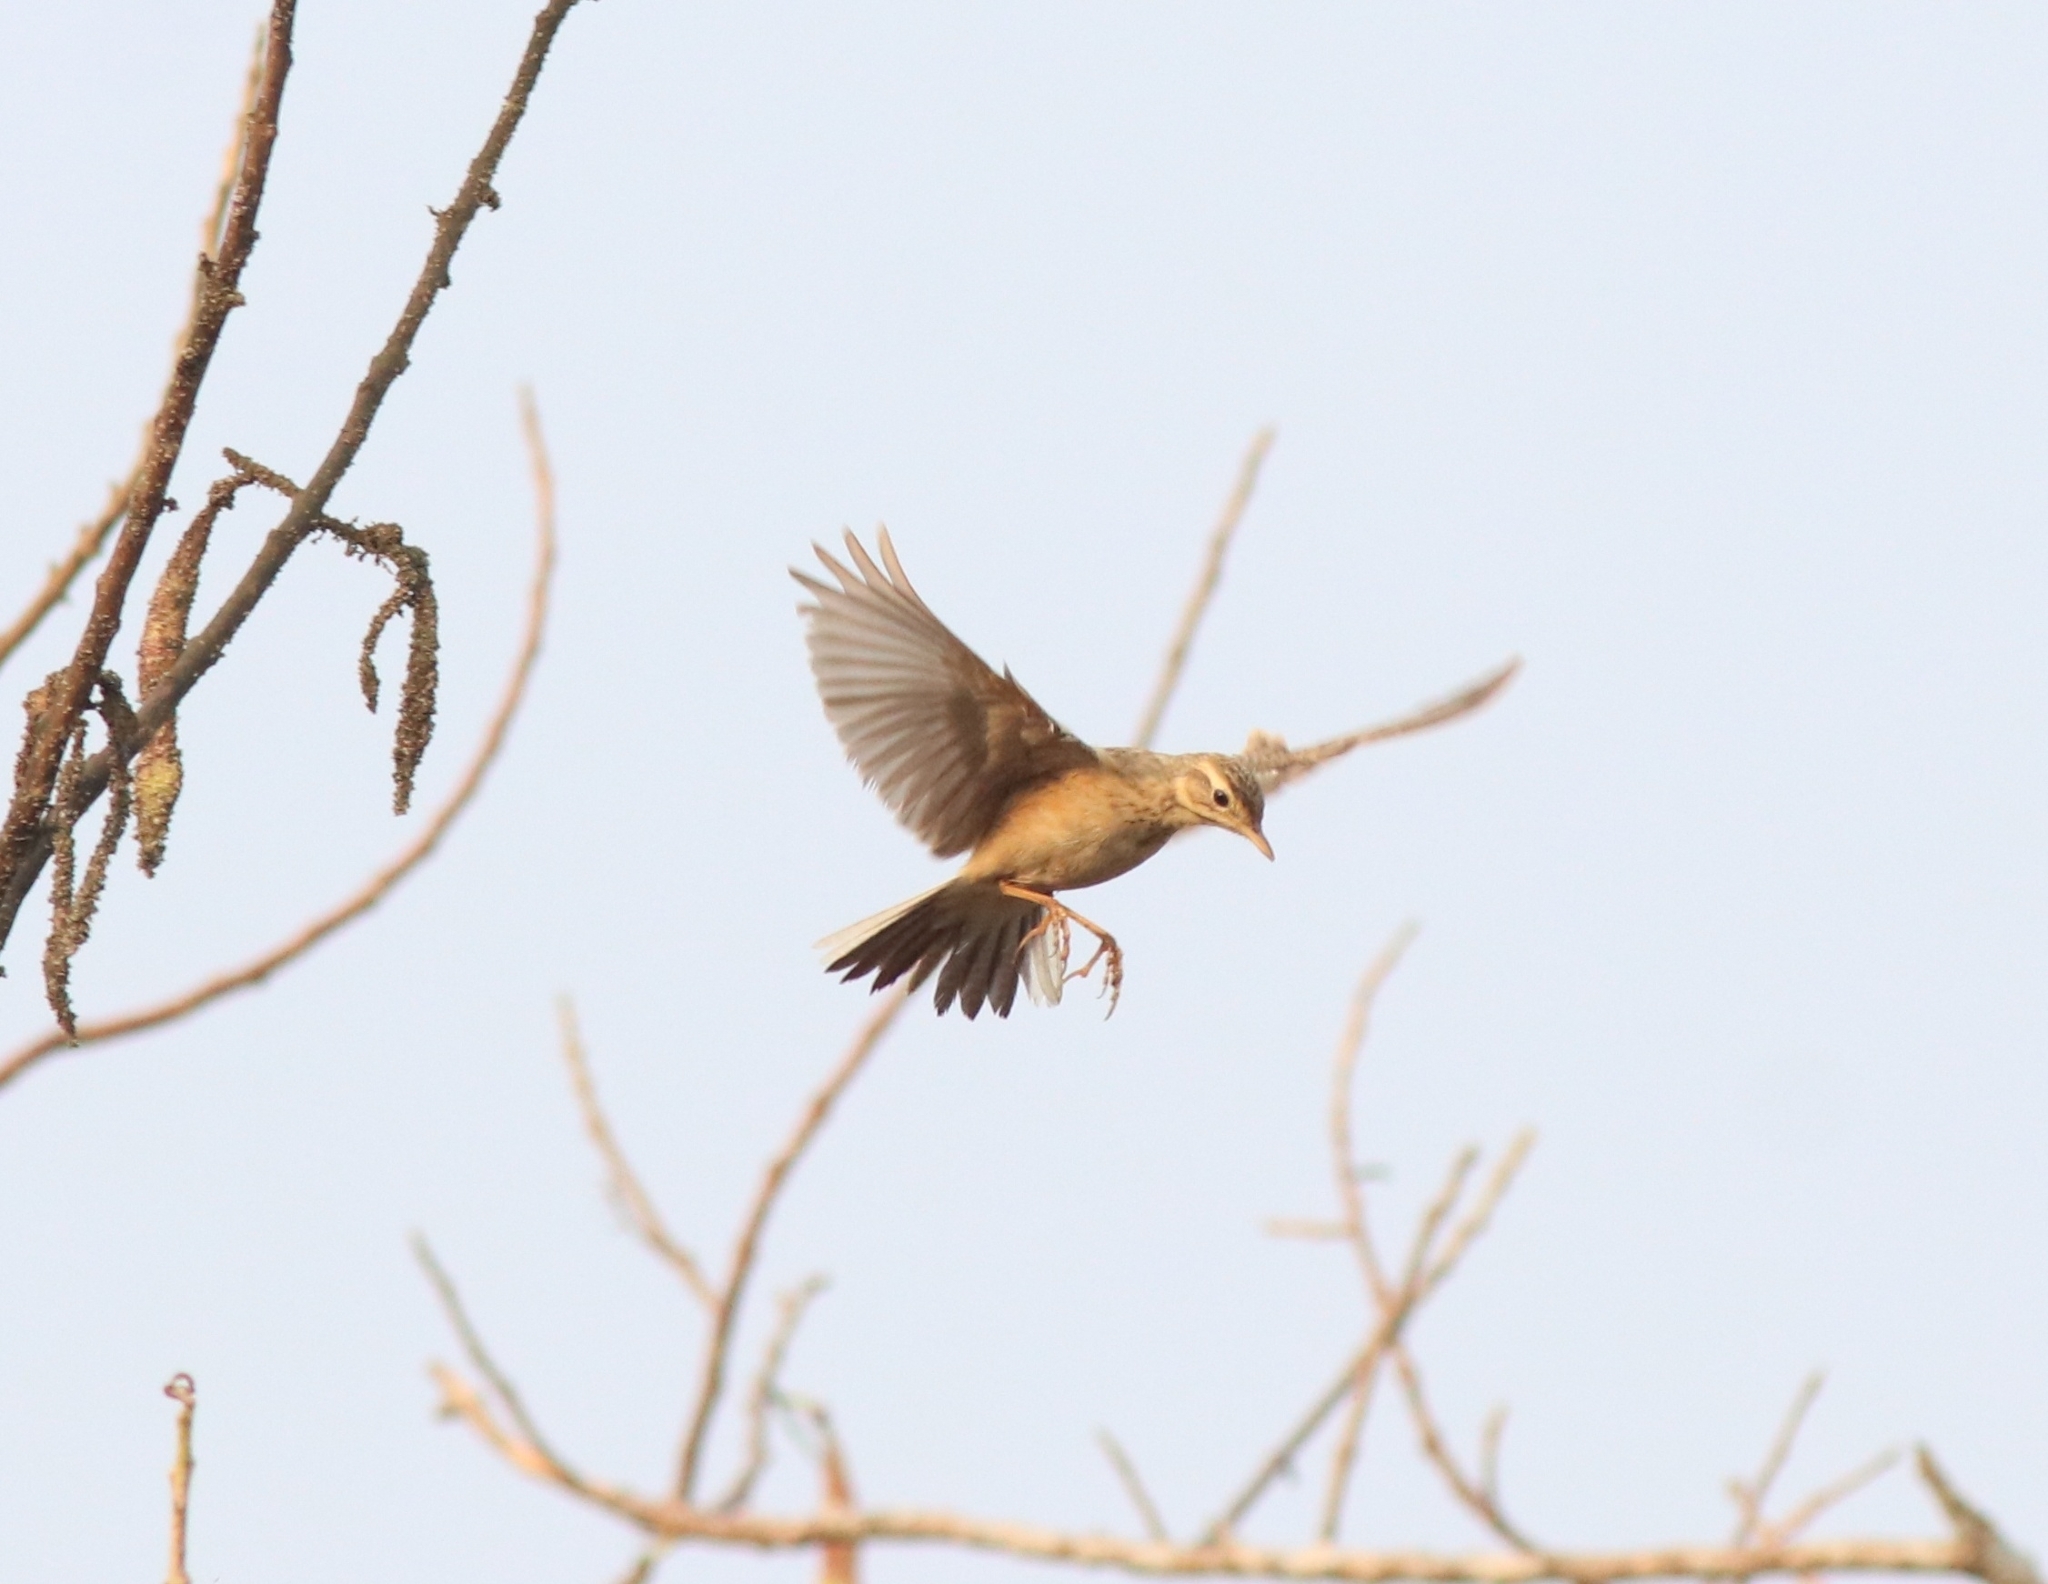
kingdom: Animalia
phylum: Chordata
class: Aves
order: Passeriformes
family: Motacillidae
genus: Anthus
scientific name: Anthus rufulus
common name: Paddyfield pipit
